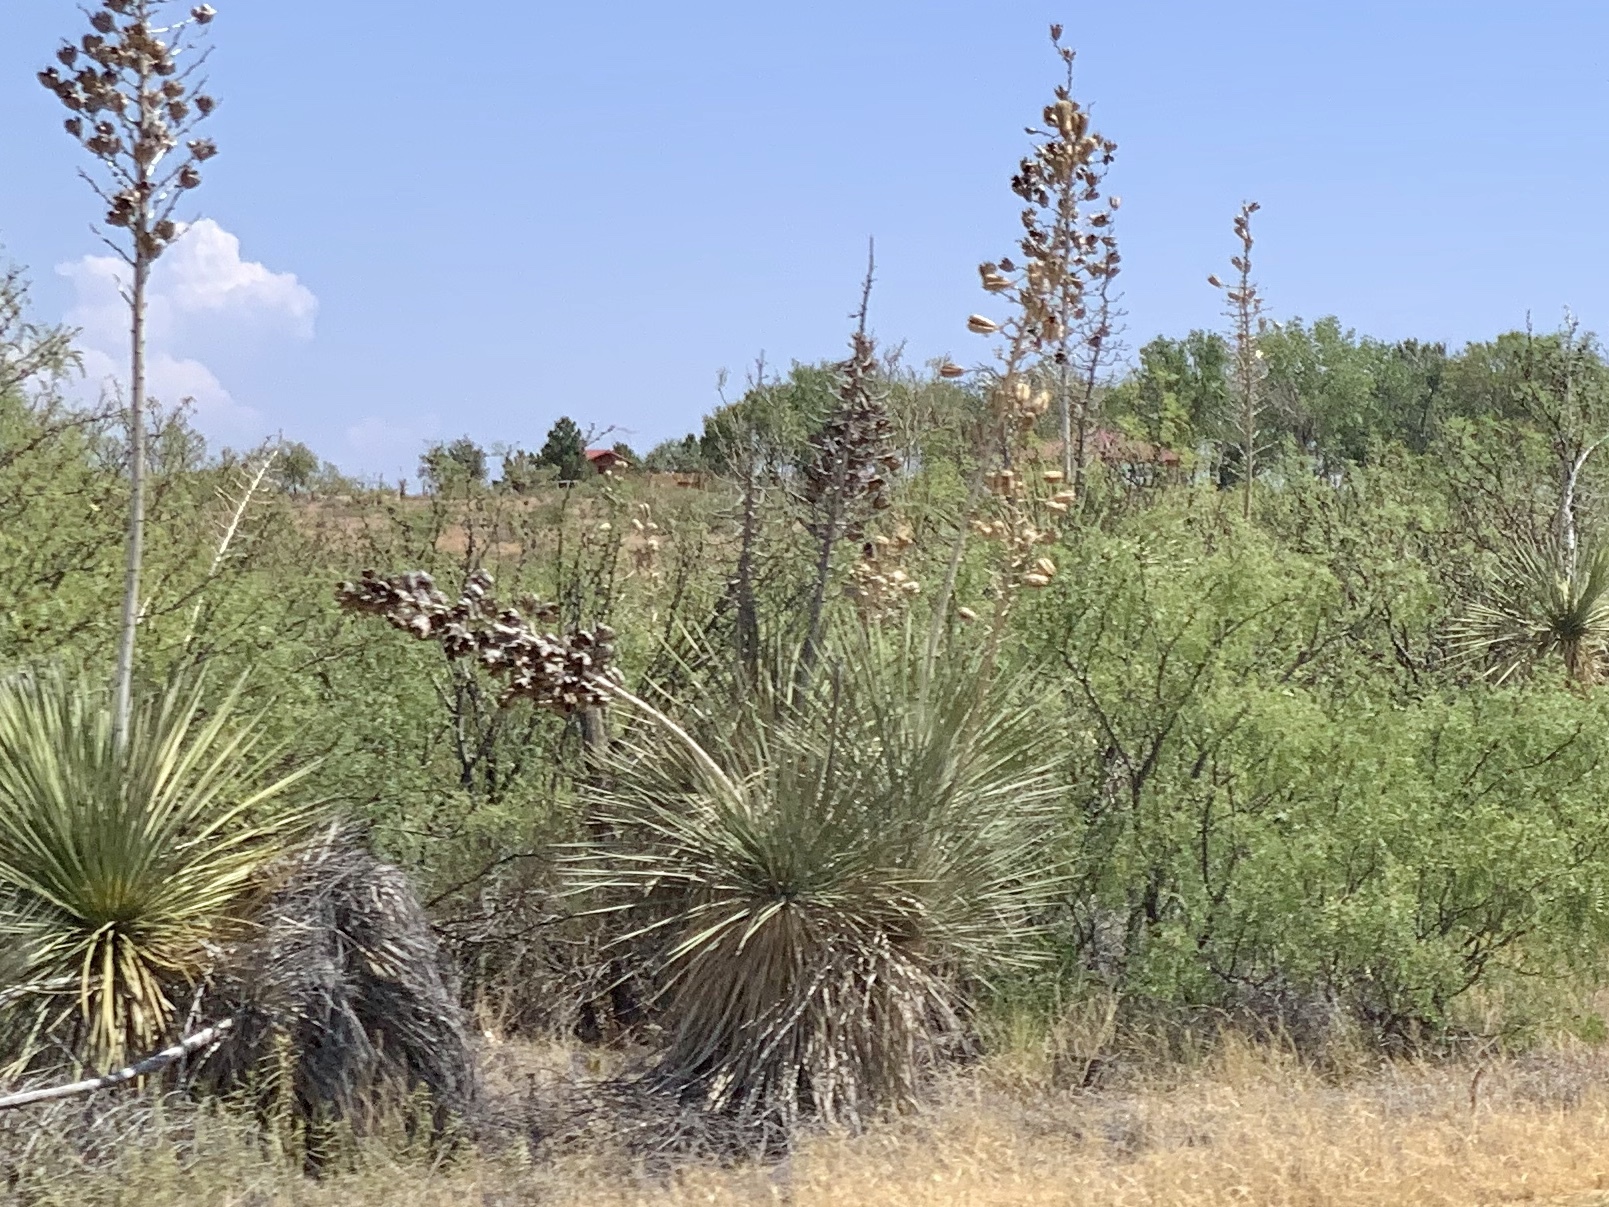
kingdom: Plantae
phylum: Tracheophyta
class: Liliopsida
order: Asparagales
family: Asparagaceae
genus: Yucca
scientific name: Yucca elata
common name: Palmella
